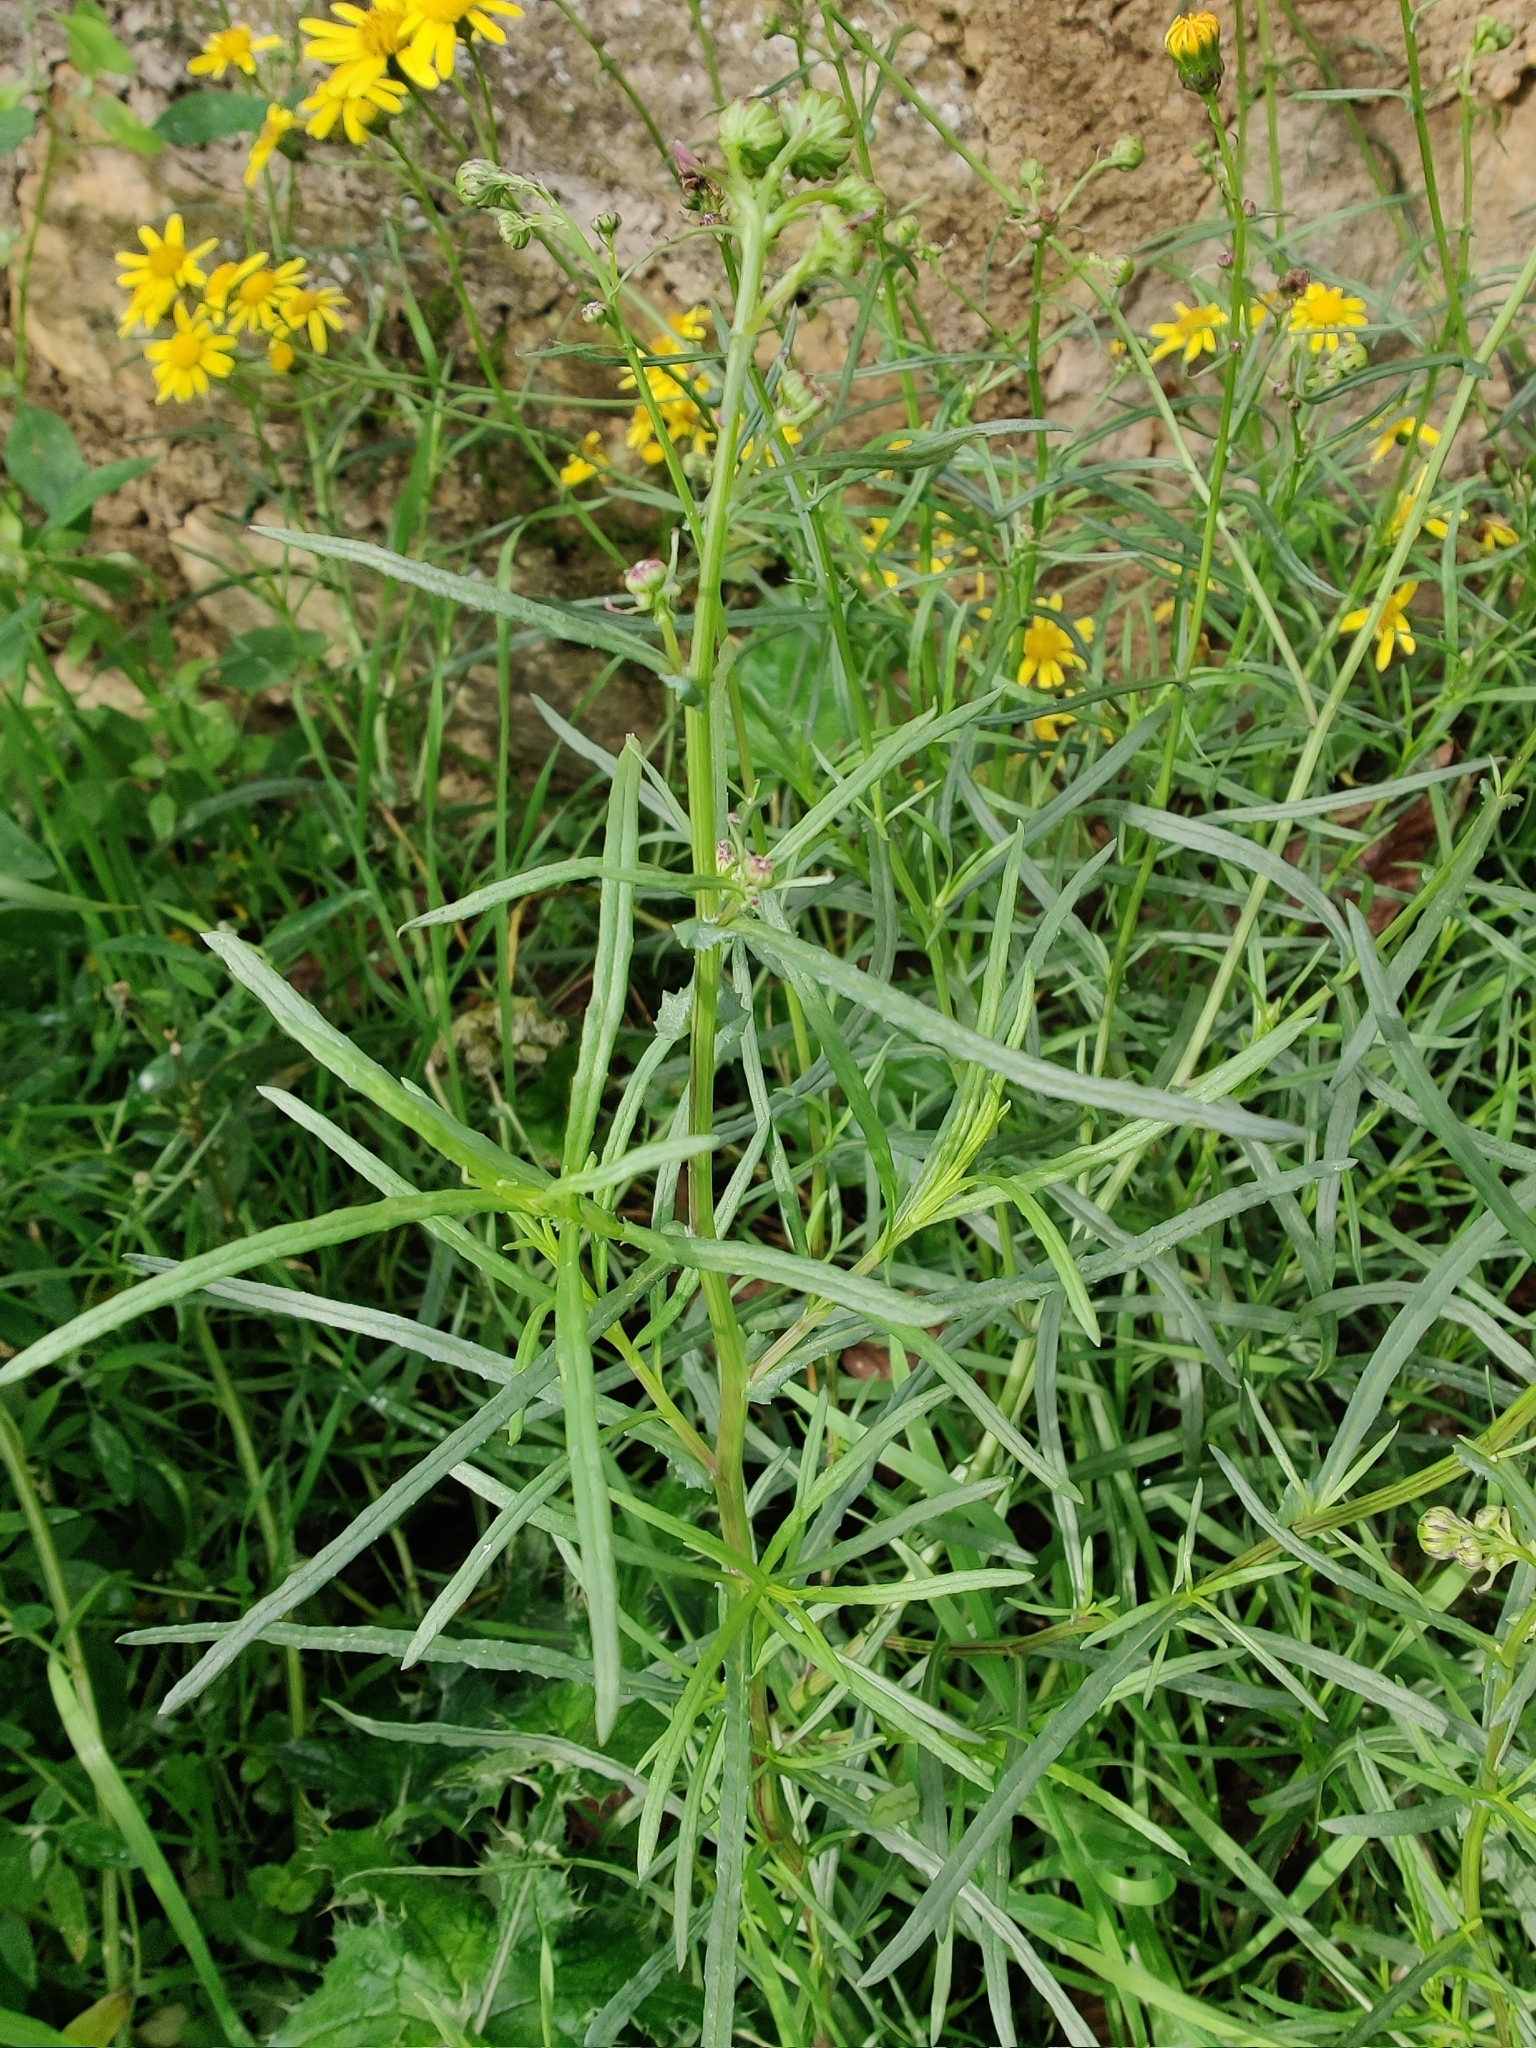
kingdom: Plantae
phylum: Tracheophyta
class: Magnoliopsida
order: Asterales
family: Asteraceae
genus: Senecio
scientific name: Senecio inaequidens
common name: Narrow-leaved ragwort
